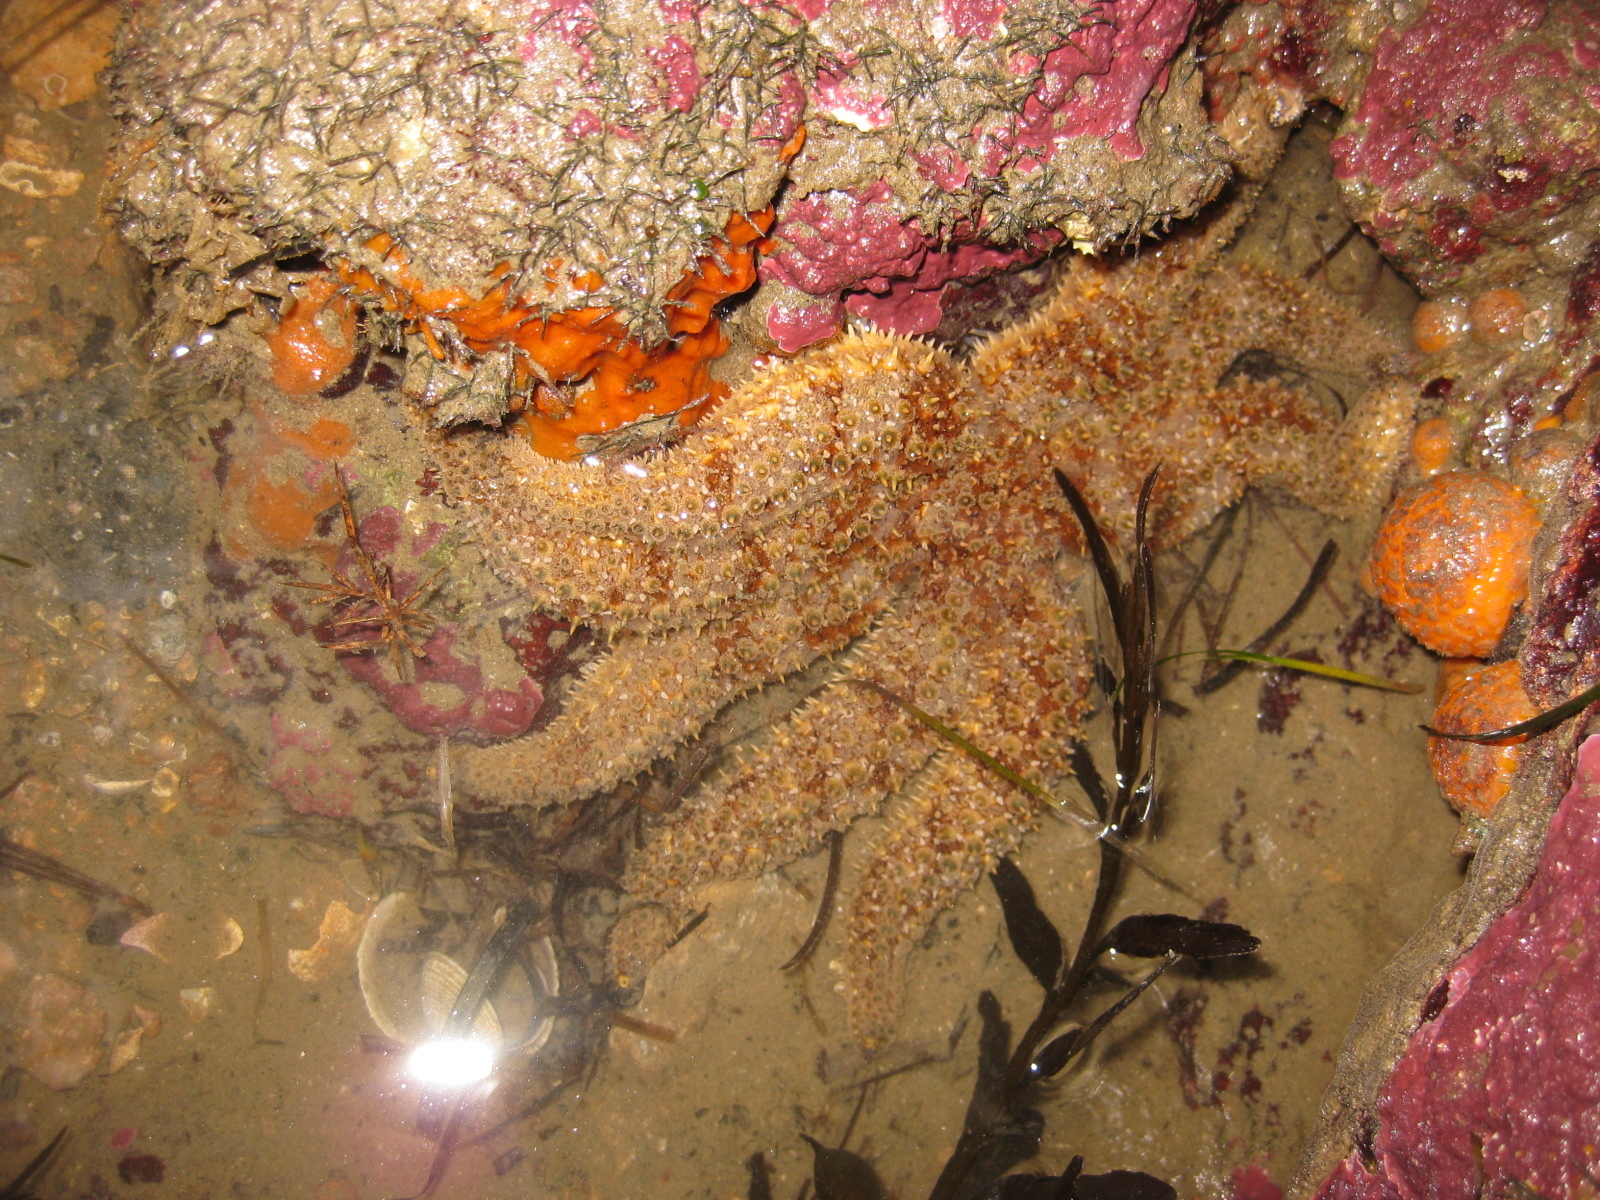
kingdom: Animalia
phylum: Echinodermata
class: Asteroidea
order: Forcipulatida
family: Asteriidae
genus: Coscinasterias
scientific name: Coscinasterias muricata
